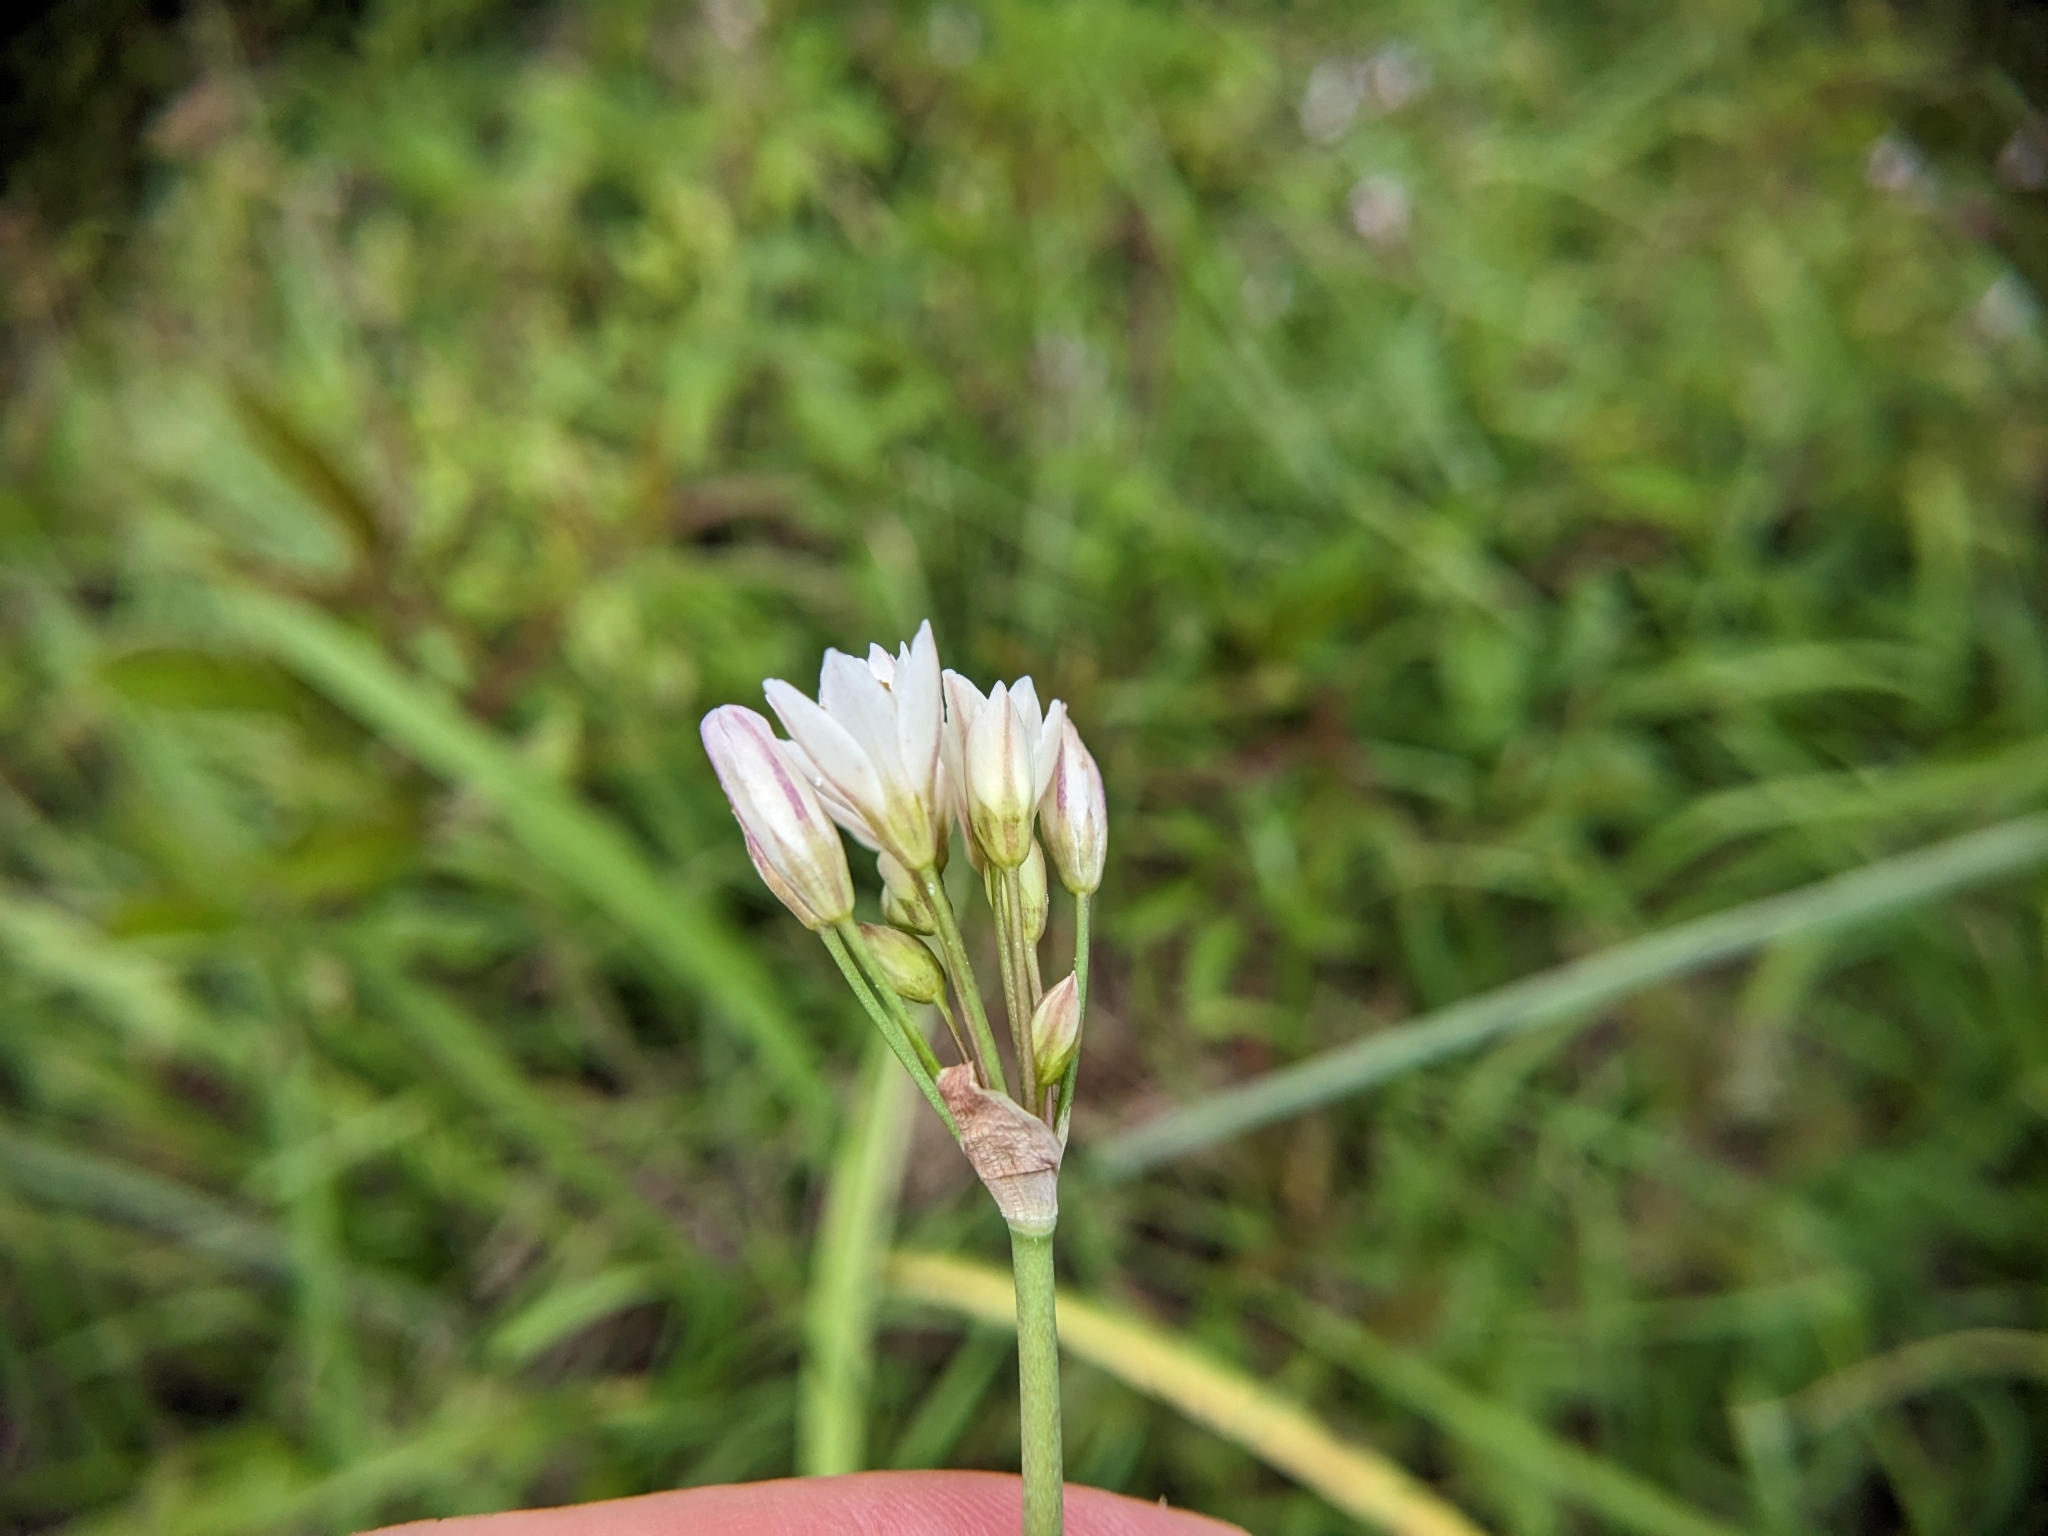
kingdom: Plantae
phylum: Tracheophyta
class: Liliopsida
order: Asparagales
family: Amaryllidaceae
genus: Nothoscordum
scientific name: Nothoscordum gracile
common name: Slender false garlic
